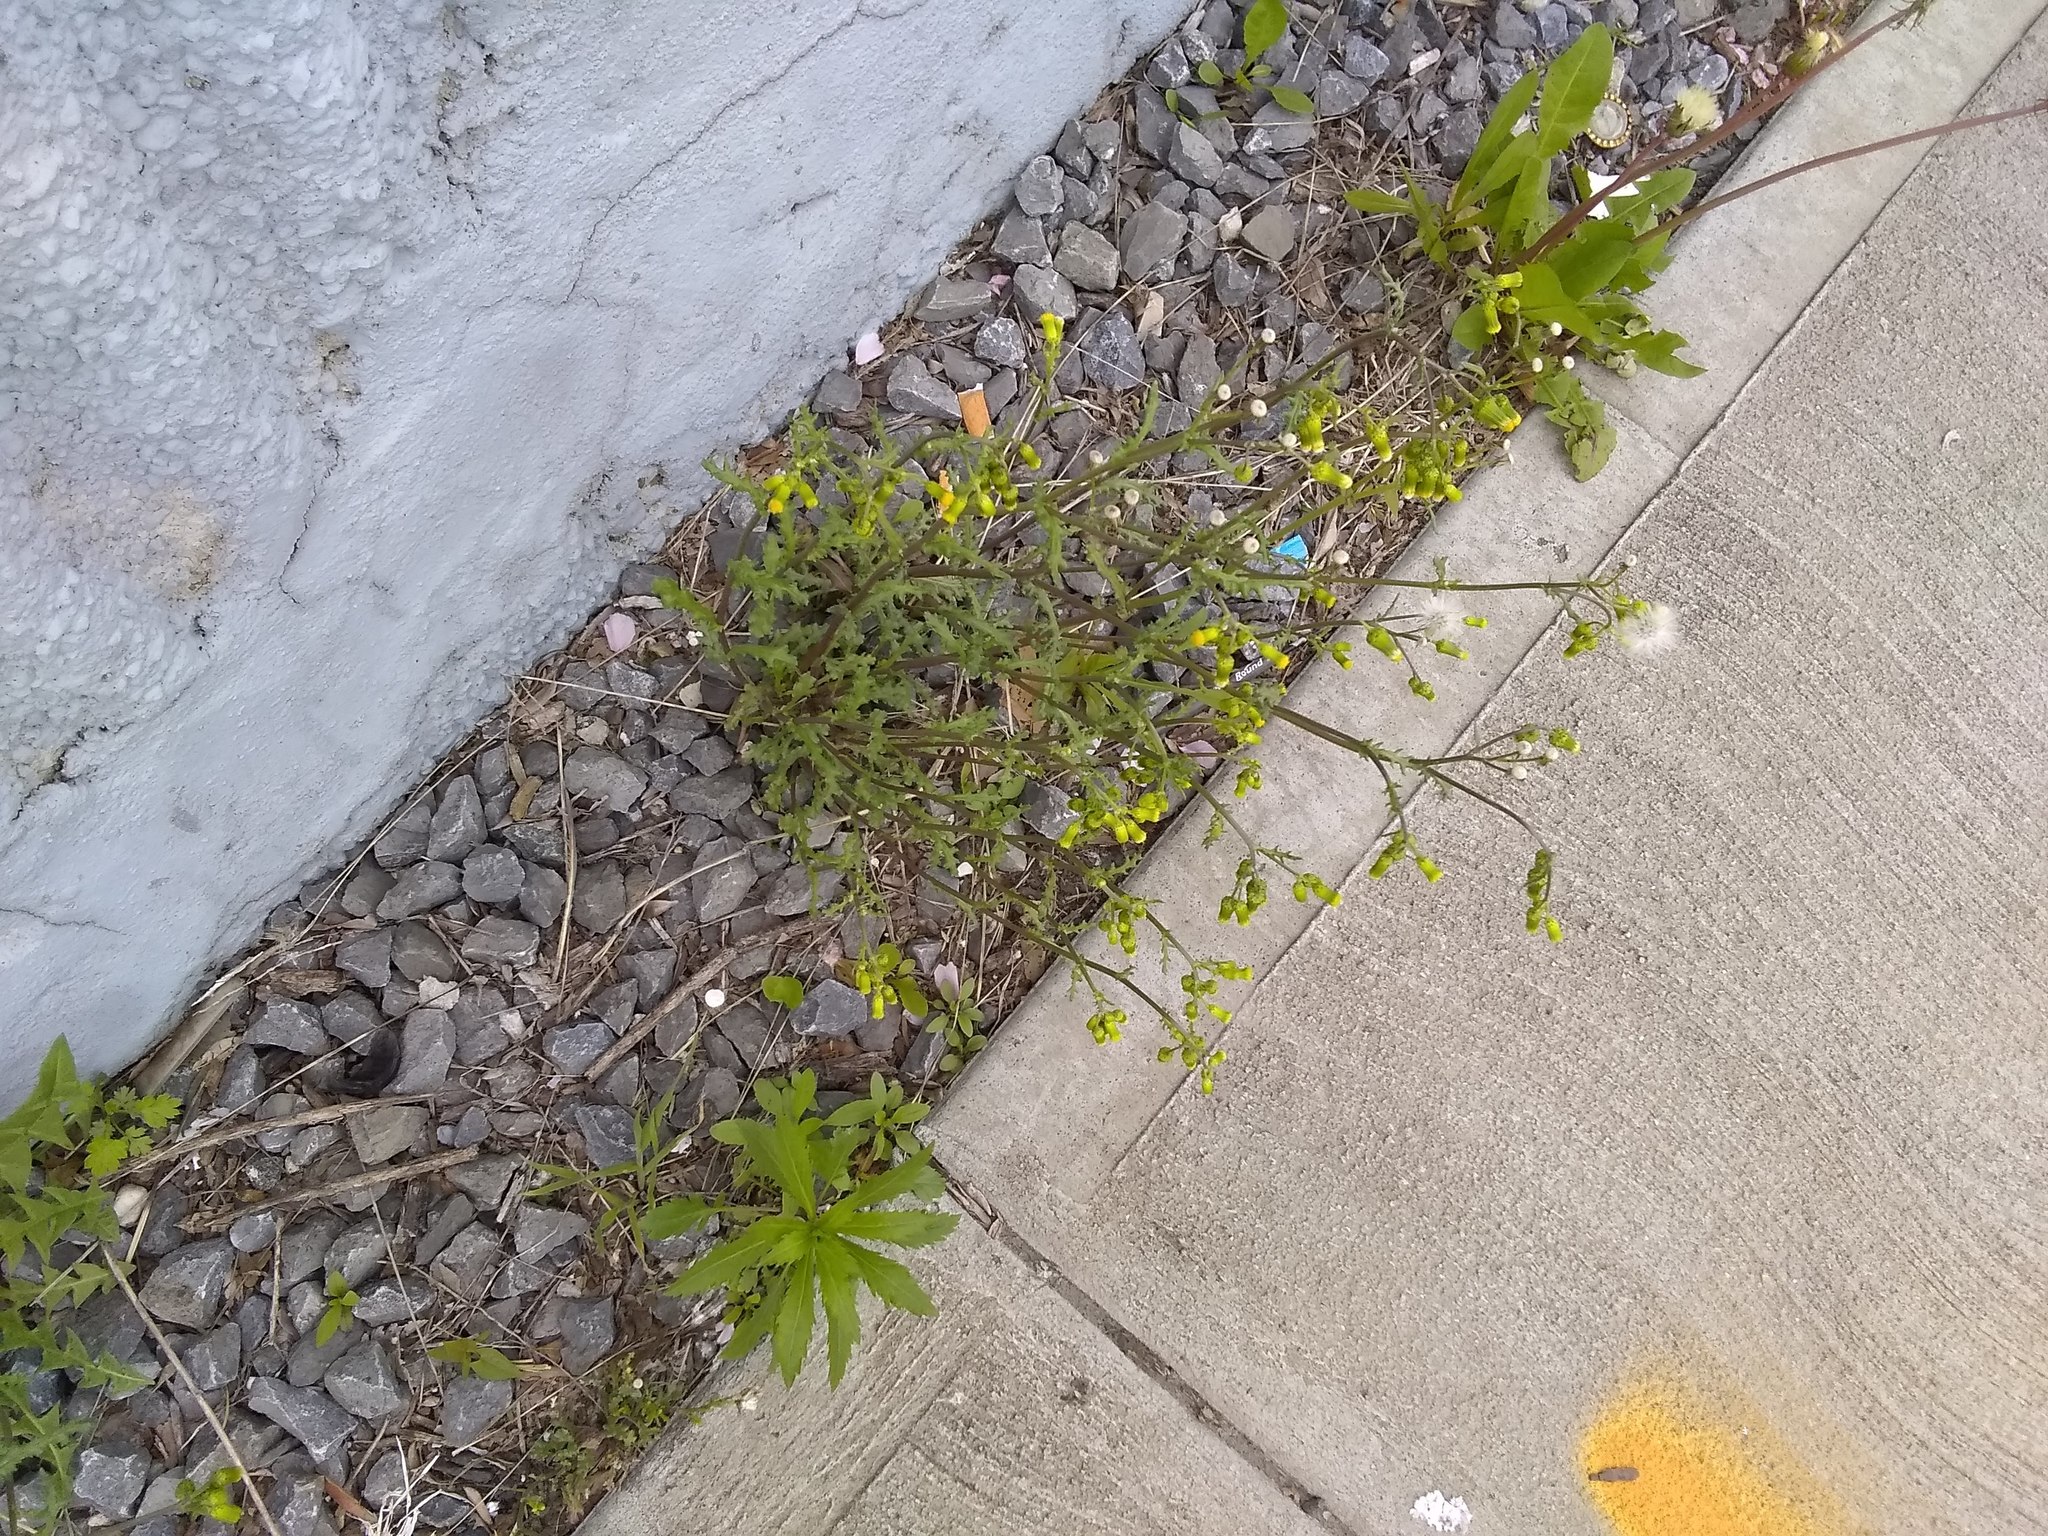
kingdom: Plantae
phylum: Tracheophyta
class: Magnoliopsida
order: Asterales
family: Asteraceae
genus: Senecio
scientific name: Senecio vulgaris
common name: Old-man-in-the-spring
